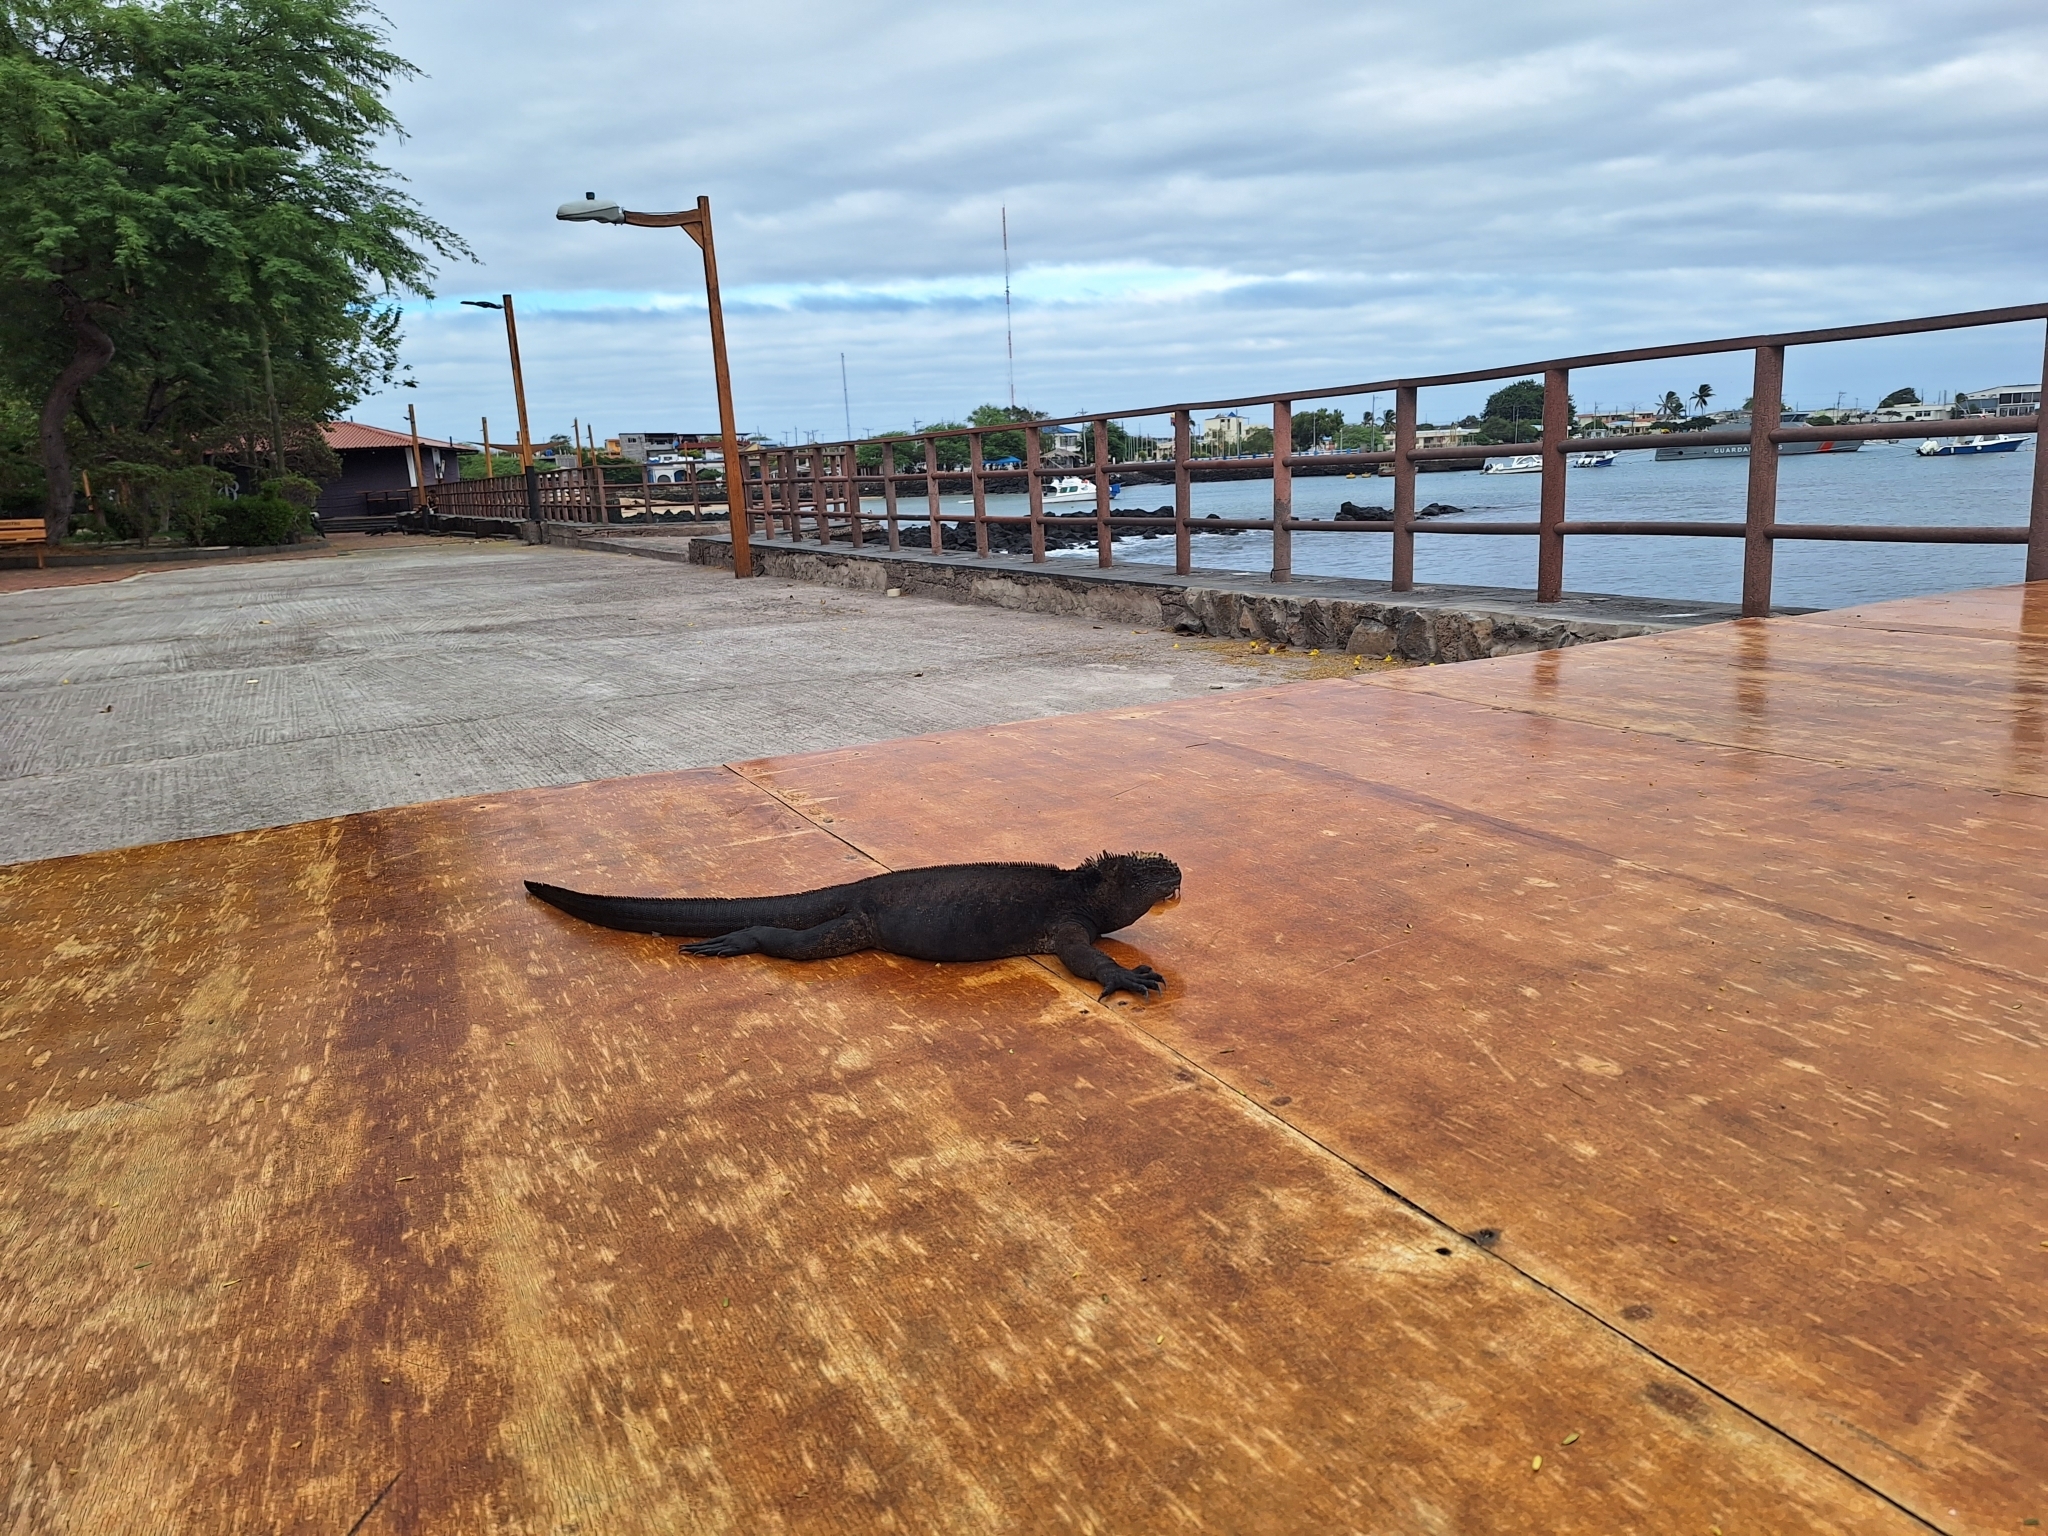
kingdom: Animalia
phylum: Chordata
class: Squamata
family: Iguanidae
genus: Amblyrhynchus
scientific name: Amblyrhynchus cristatus
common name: Marine iguana
